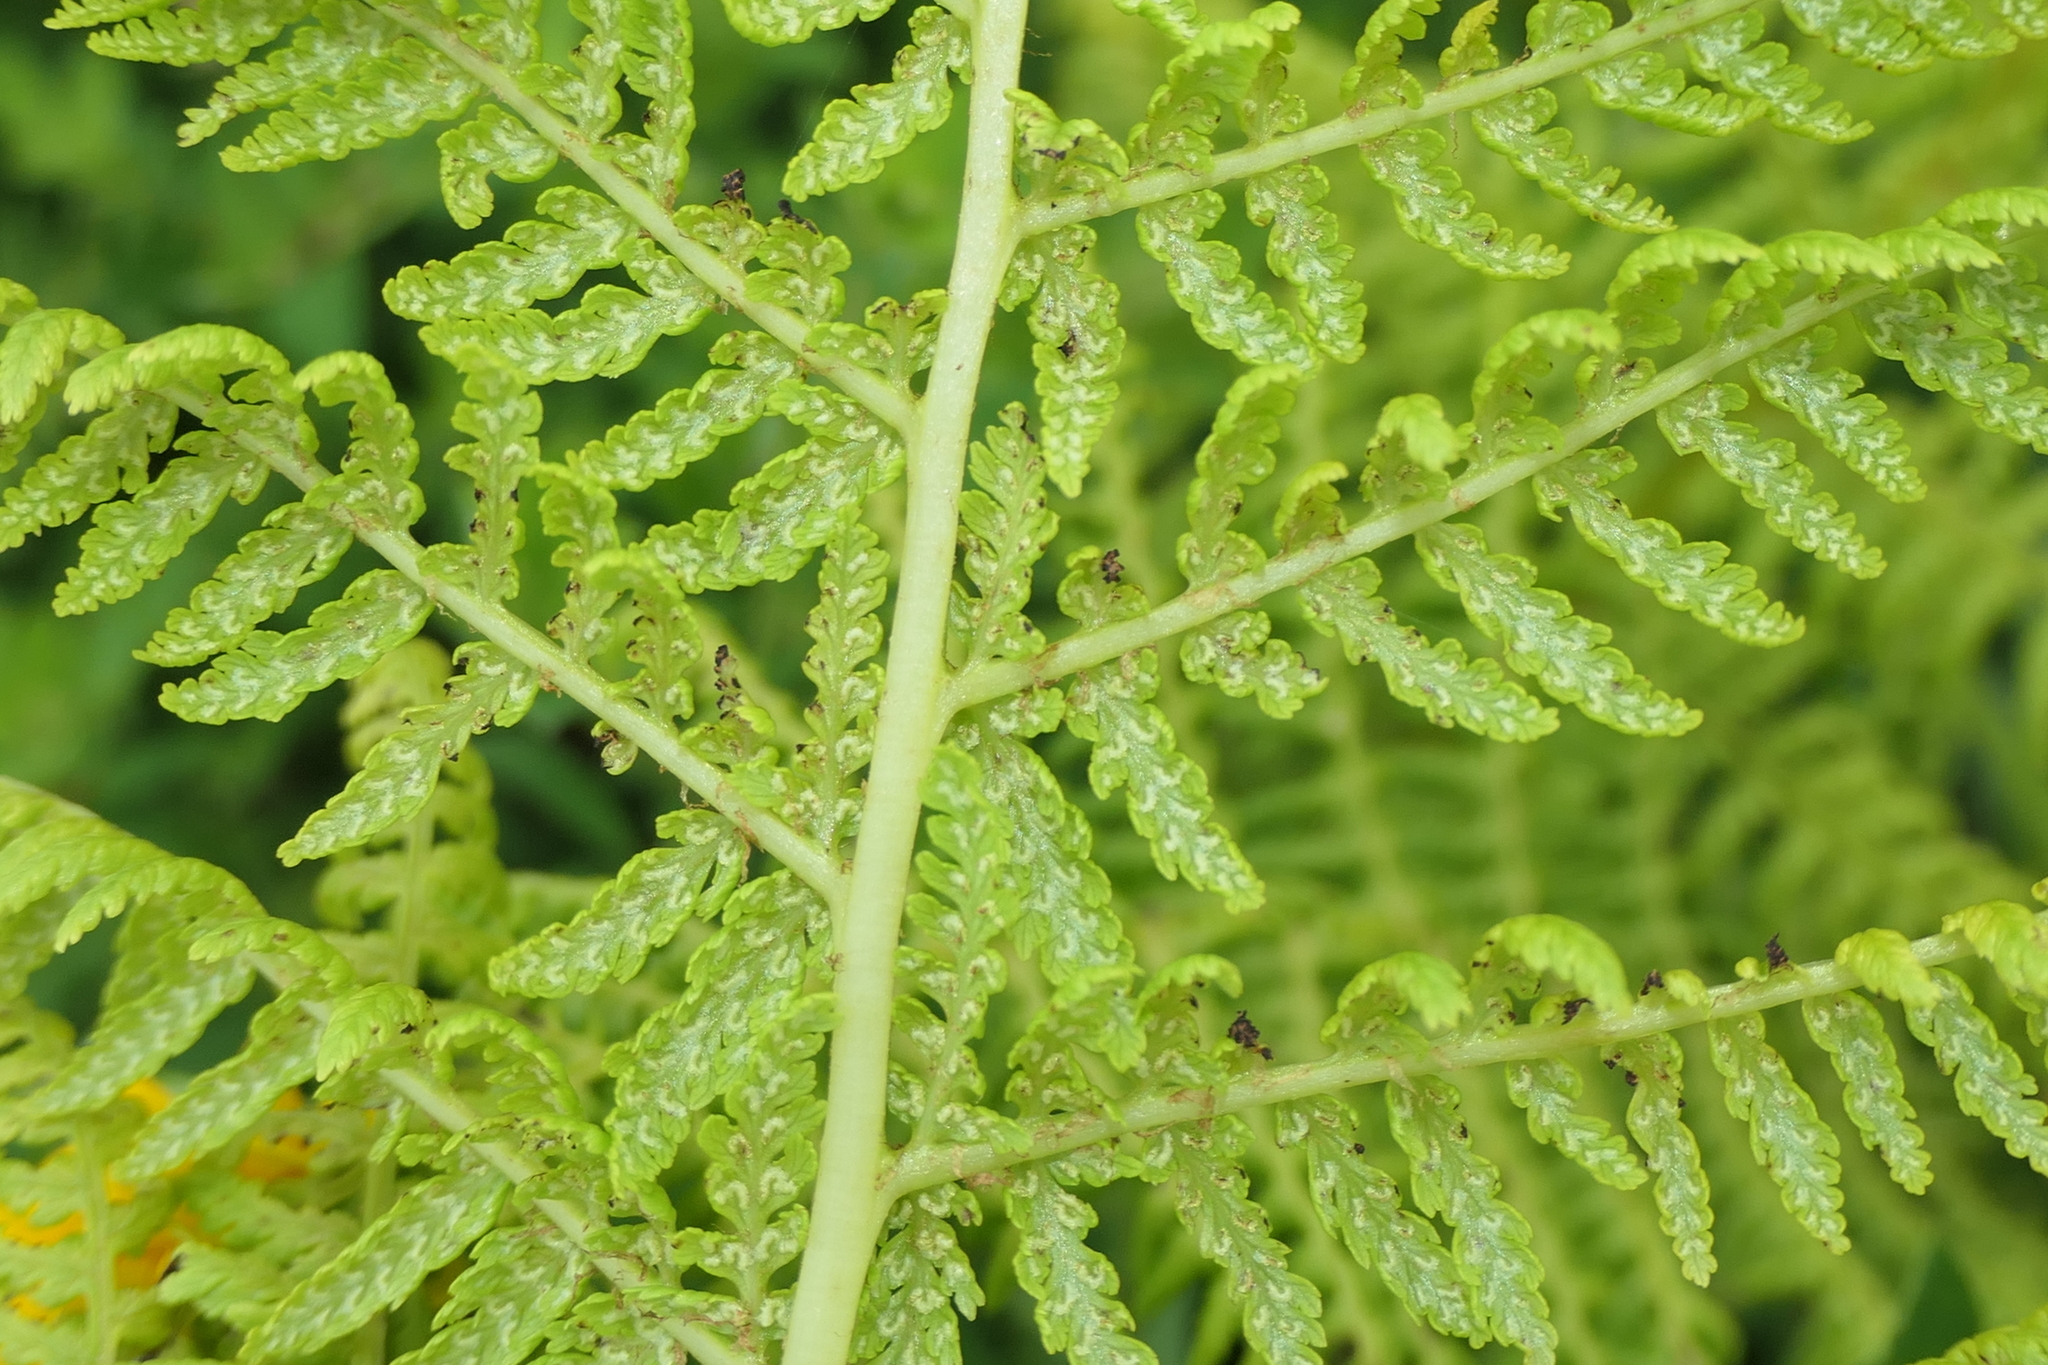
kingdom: Plantae
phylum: Tracheophyta
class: Polypodiopsida
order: Polypodiales
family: Athyriaceae
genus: Athyrium
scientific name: Athyrium filix-femina
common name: Lady fern
